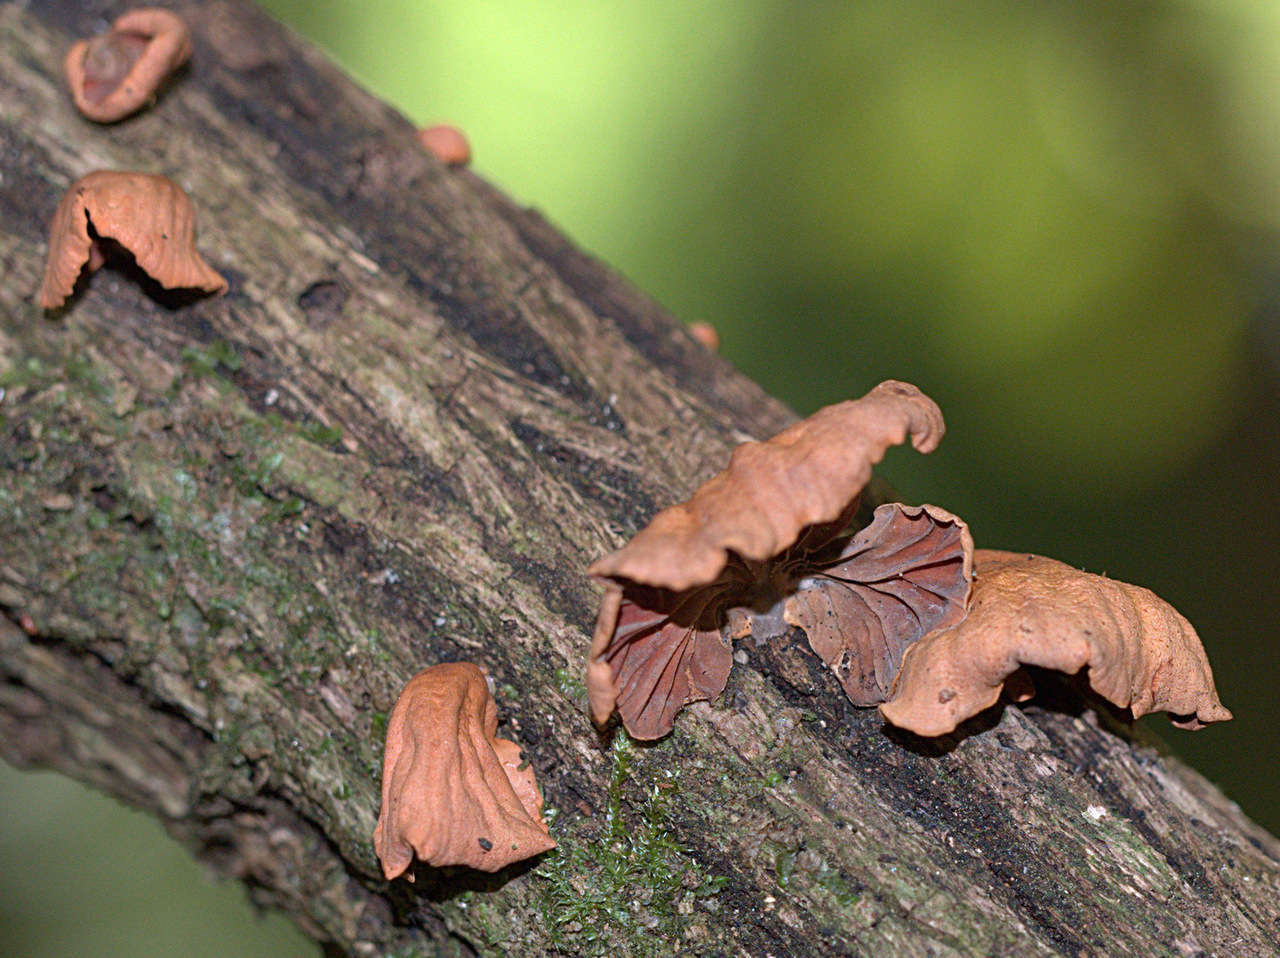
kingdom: Fungi
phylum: Basidiomycota
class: Agaricomycetes
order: Agaricales
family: Omphalotaceae
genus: Anthracophyllum
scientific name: Anthracophyllum archeri
